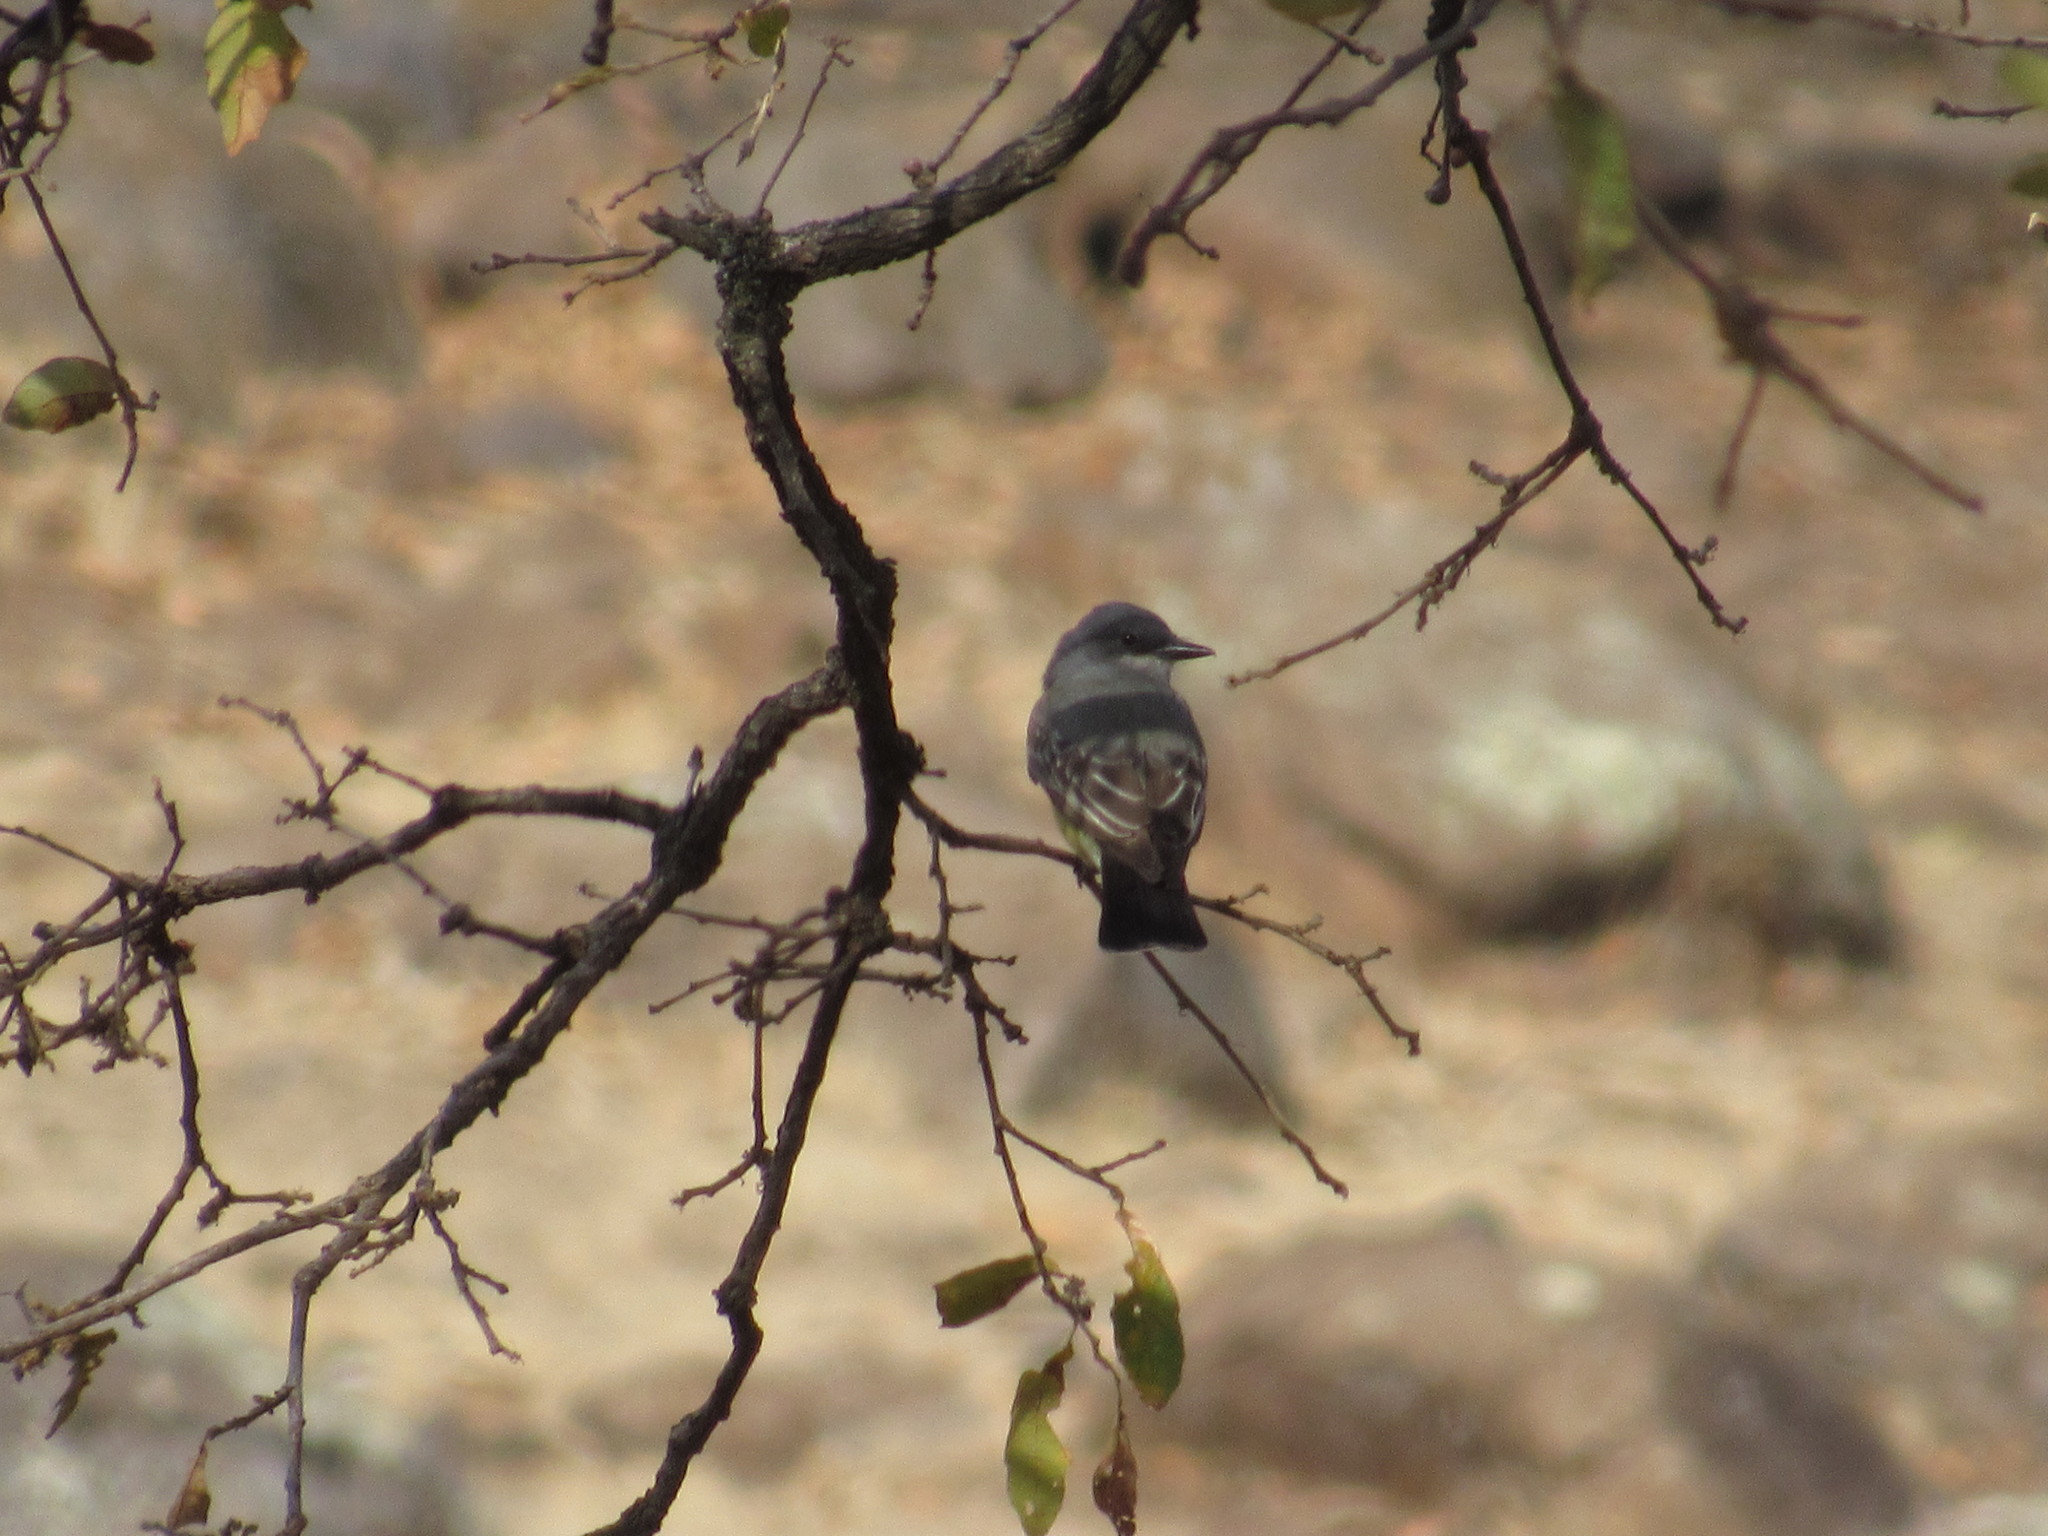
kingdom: Animalia
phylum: Chordata
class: Aves
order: Passeriformes
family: Tyrannidae
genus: Tyrannus
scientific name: Tyrannus vociferans
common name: Cassin's kingbird
